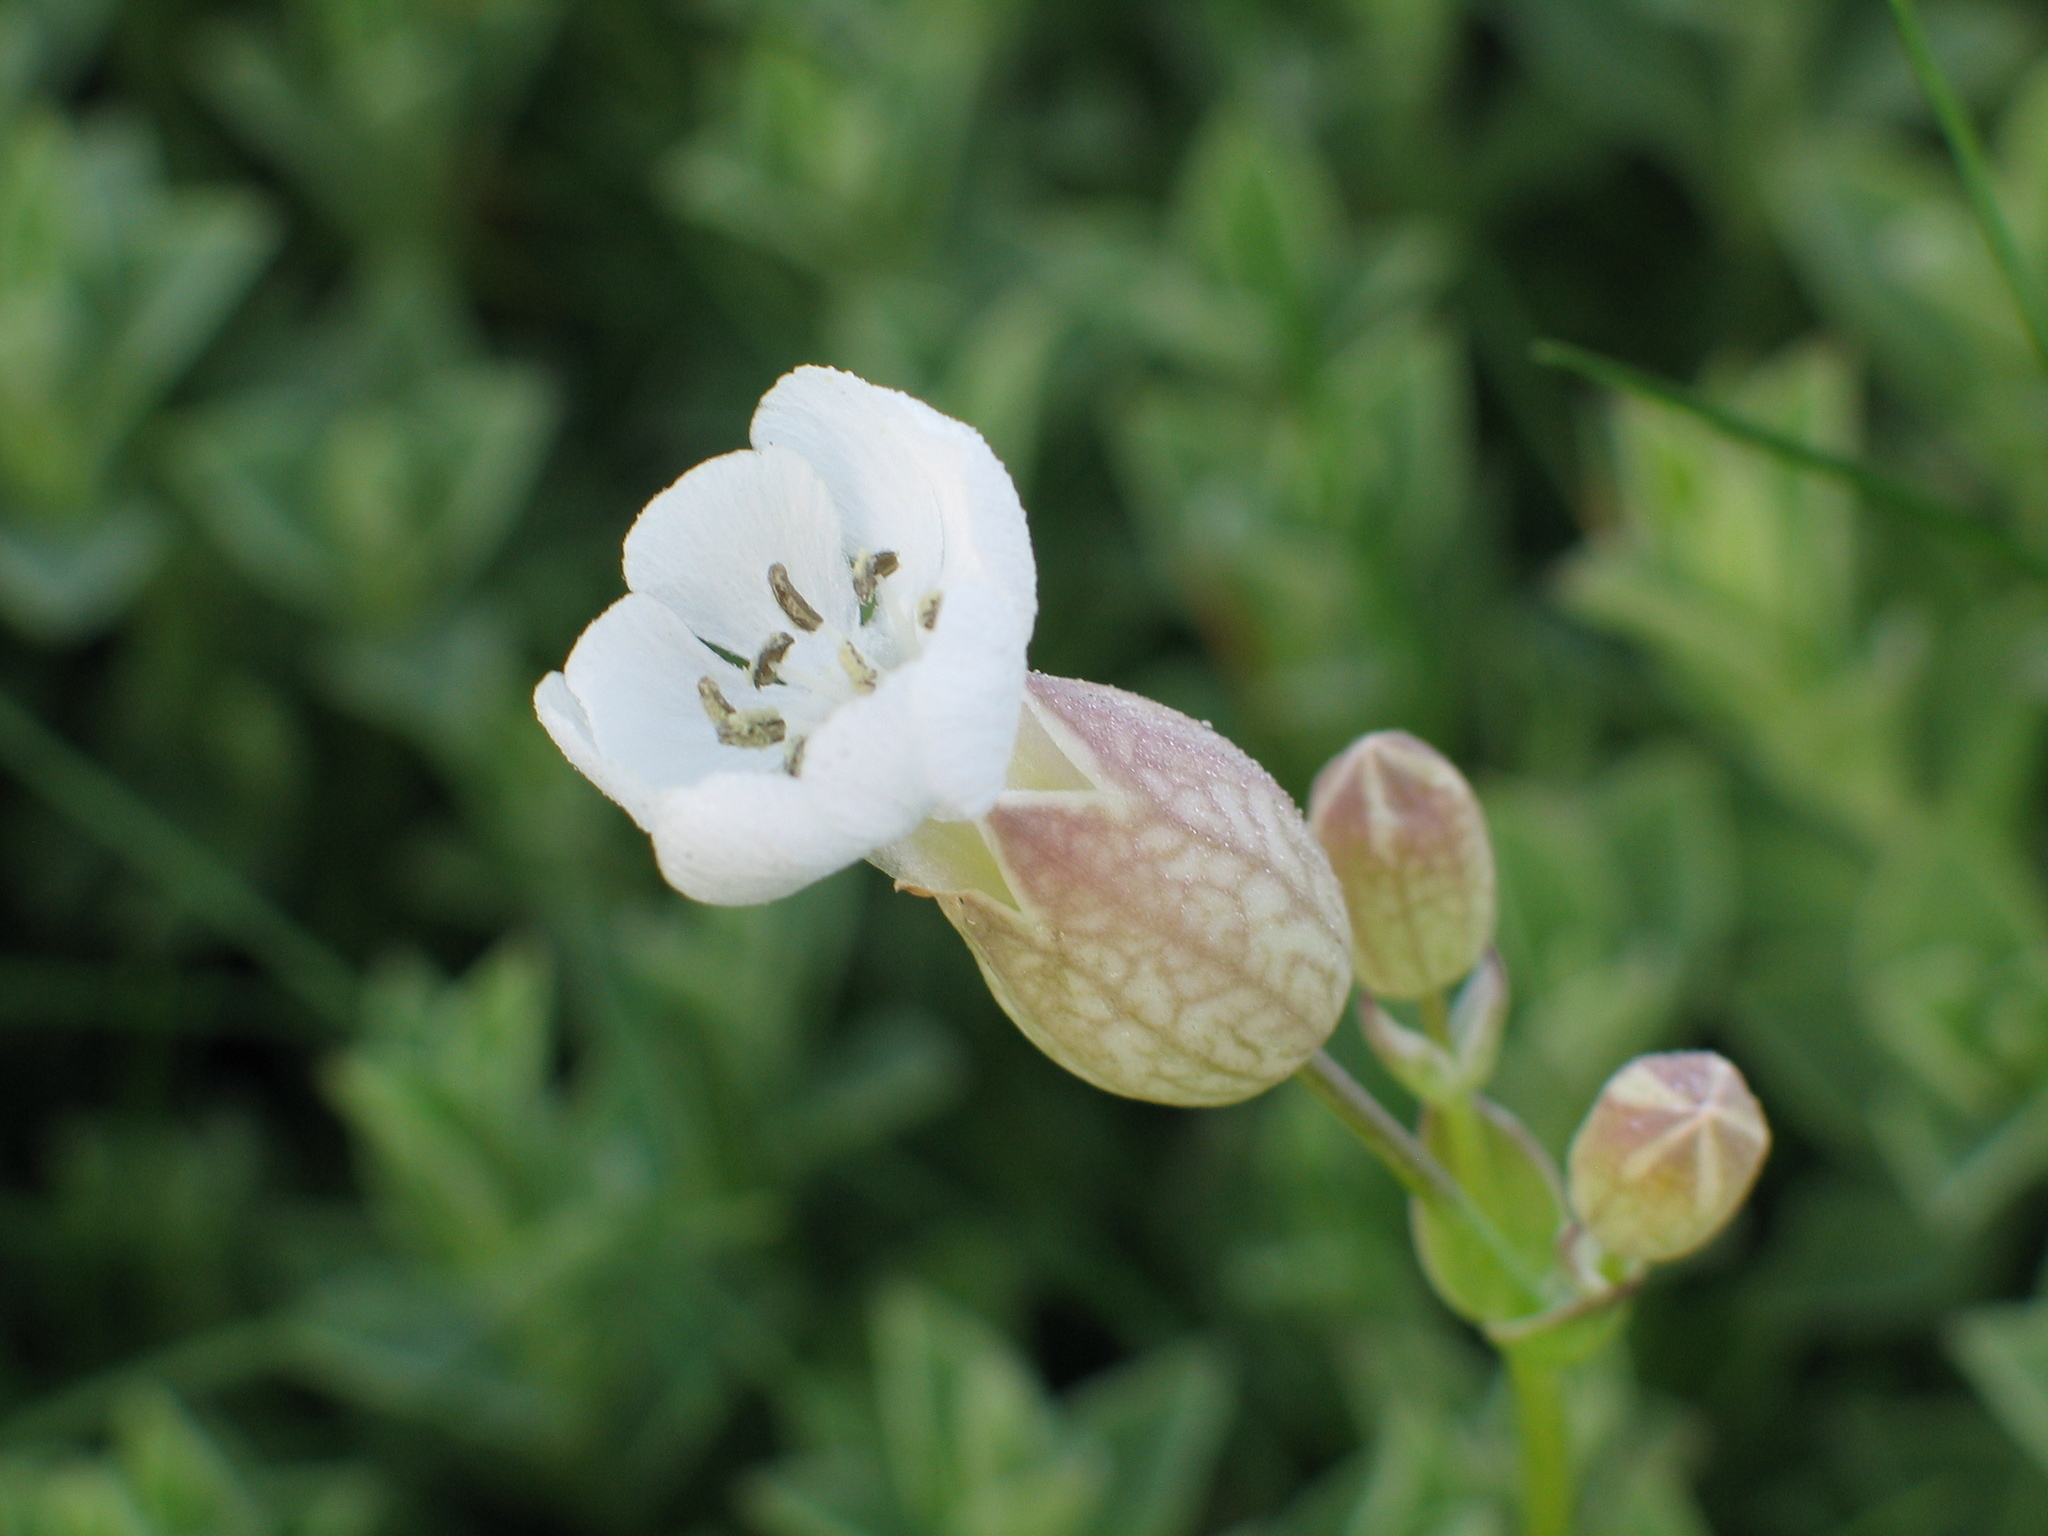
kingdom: Plantae
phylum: Tracheophyta
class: Magnoliopsida
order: Caryophyllales
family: Caryophyllaceae
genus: Silene
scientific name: Silene uniflora
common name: Sea campion
